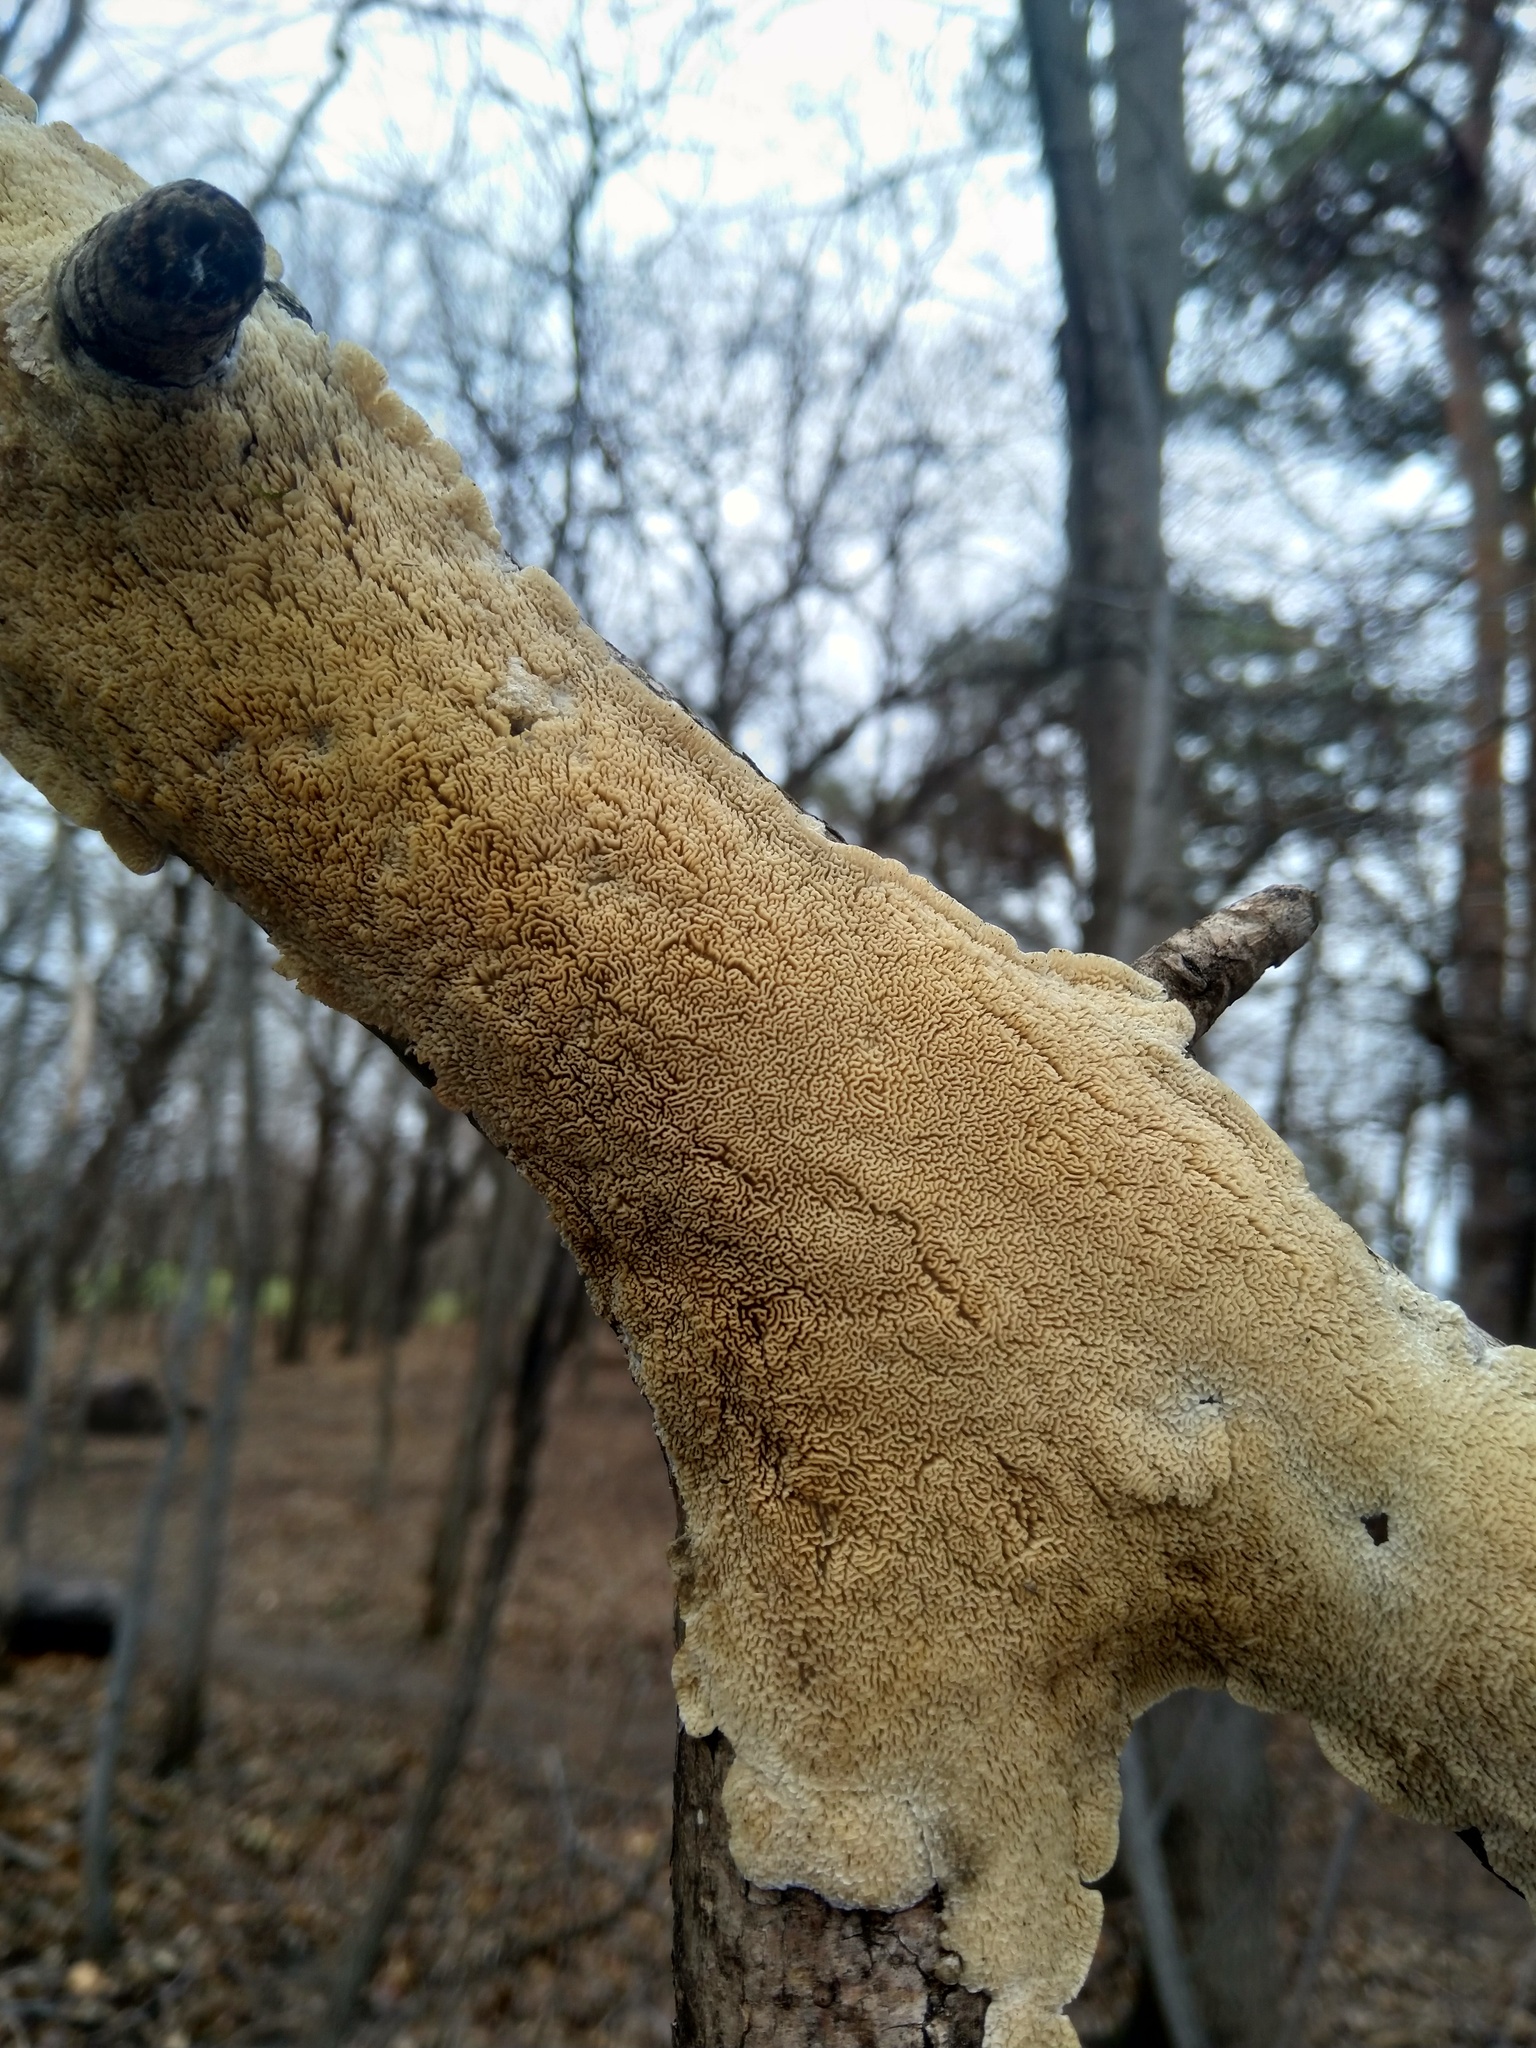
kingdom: Fungi
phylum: Basidiomycota
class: Agaricomycetes
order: Polyporales
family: Irpicaceae
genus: Irpex
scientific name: Irpex lacteus
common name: Milk-white toothed polypore
